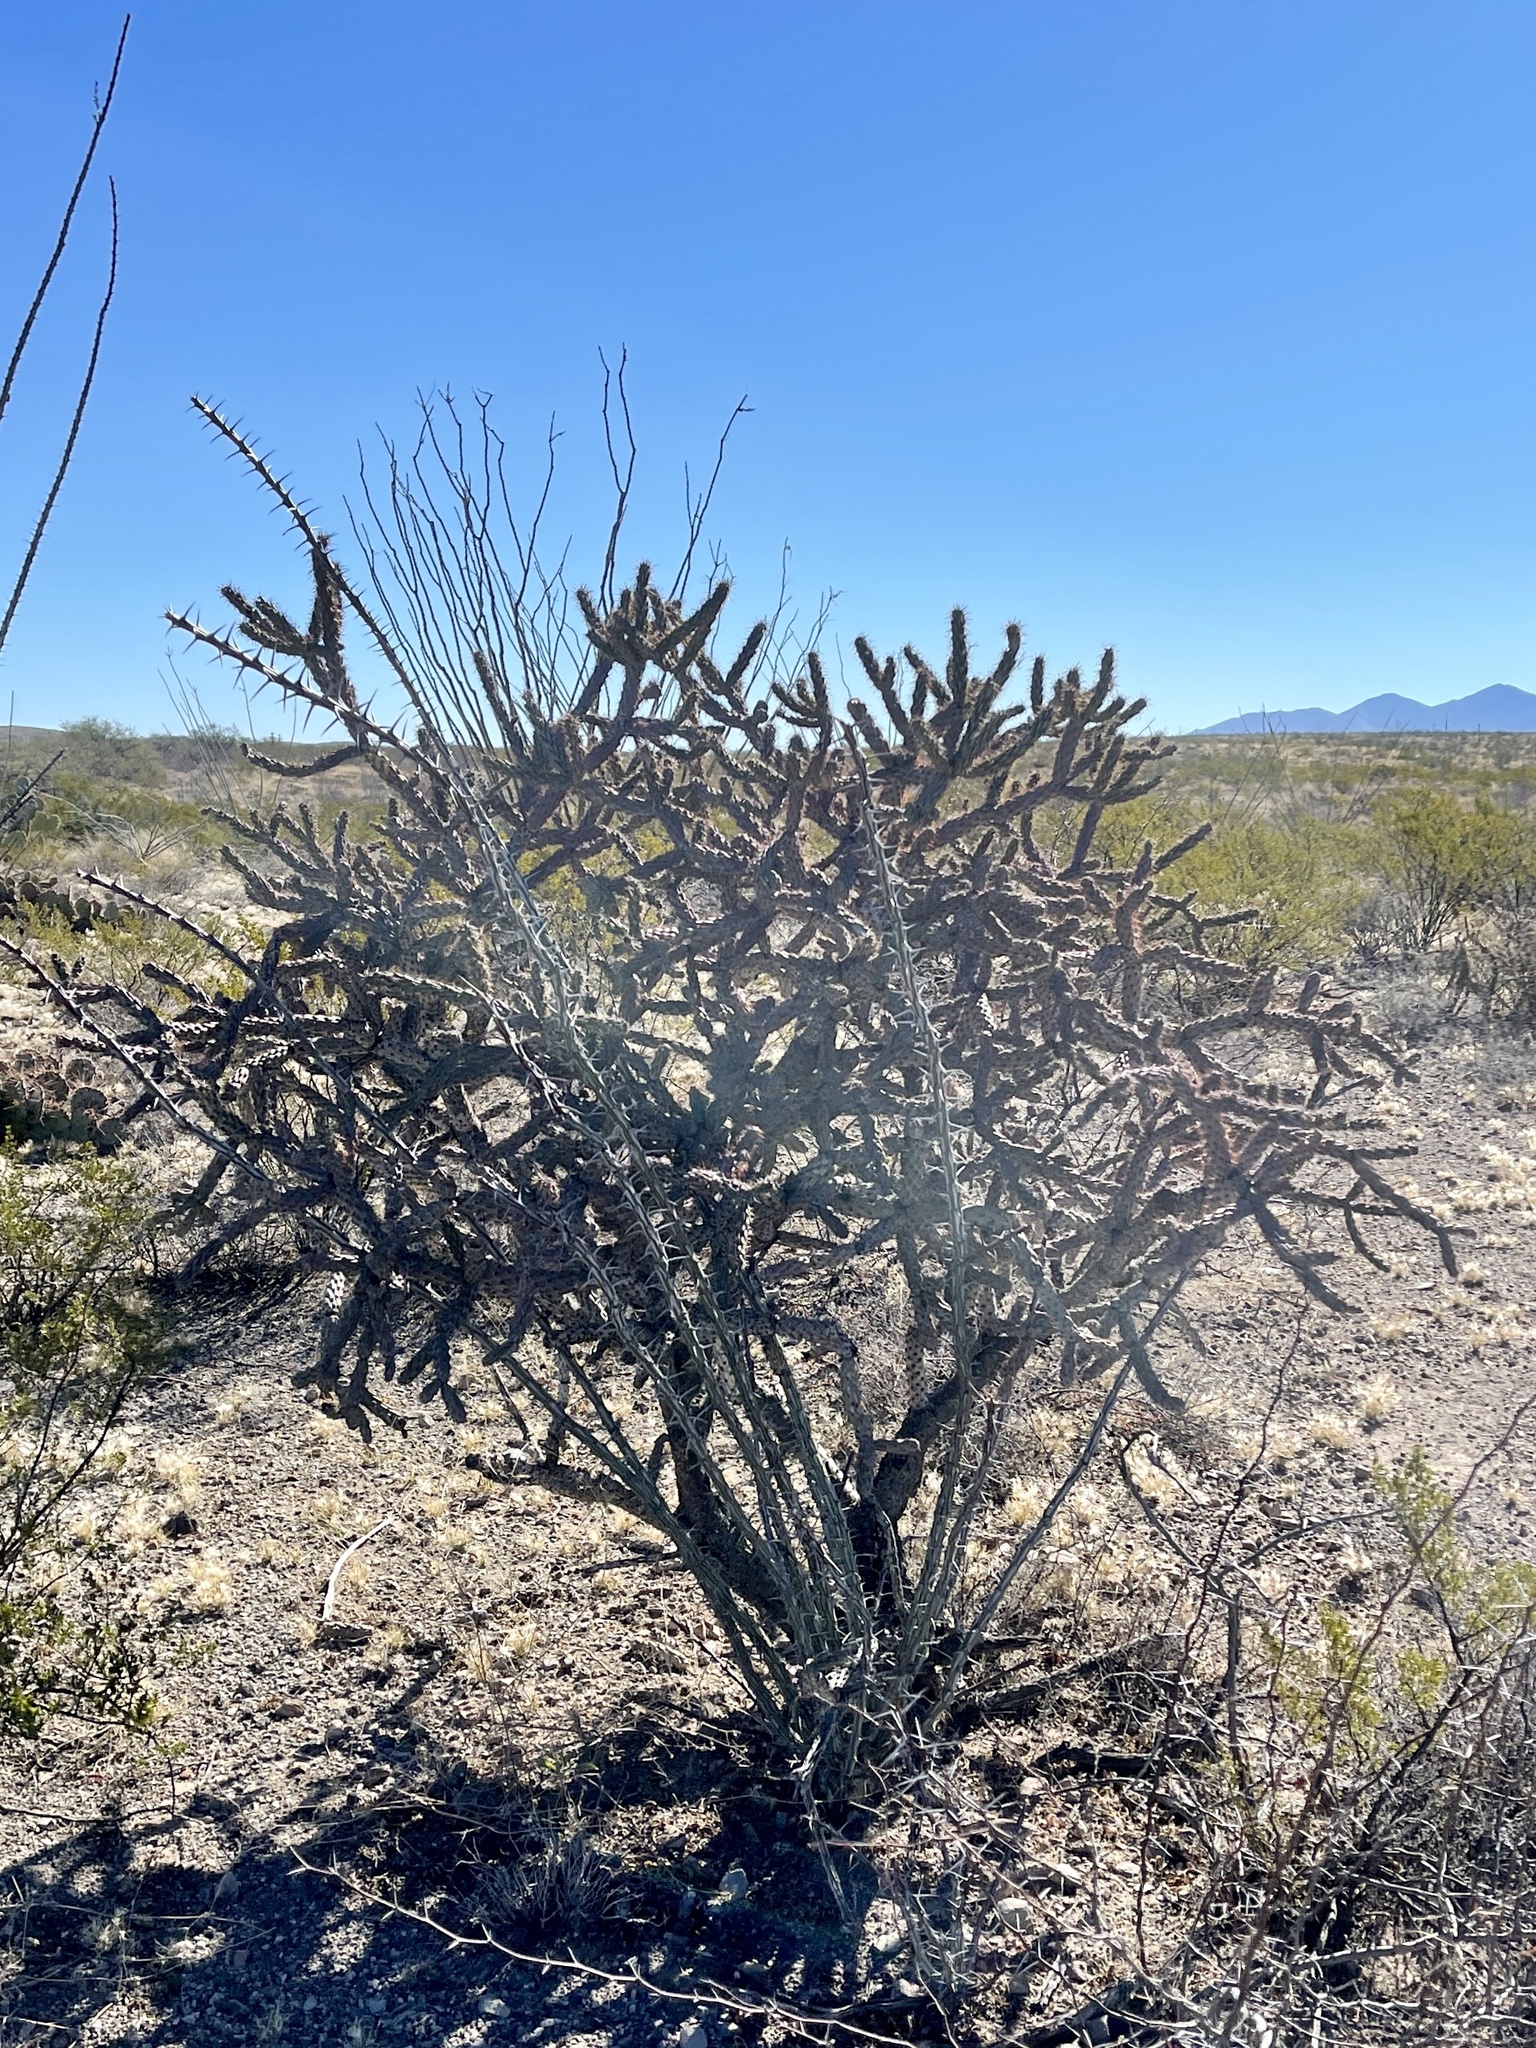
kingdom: Plantae
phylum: Tracheophyta
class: Magnoliopsida
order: Caryophyllales
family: Cactaceae
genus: Cylindropuntia
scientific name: Cylindropuntia thurberi
